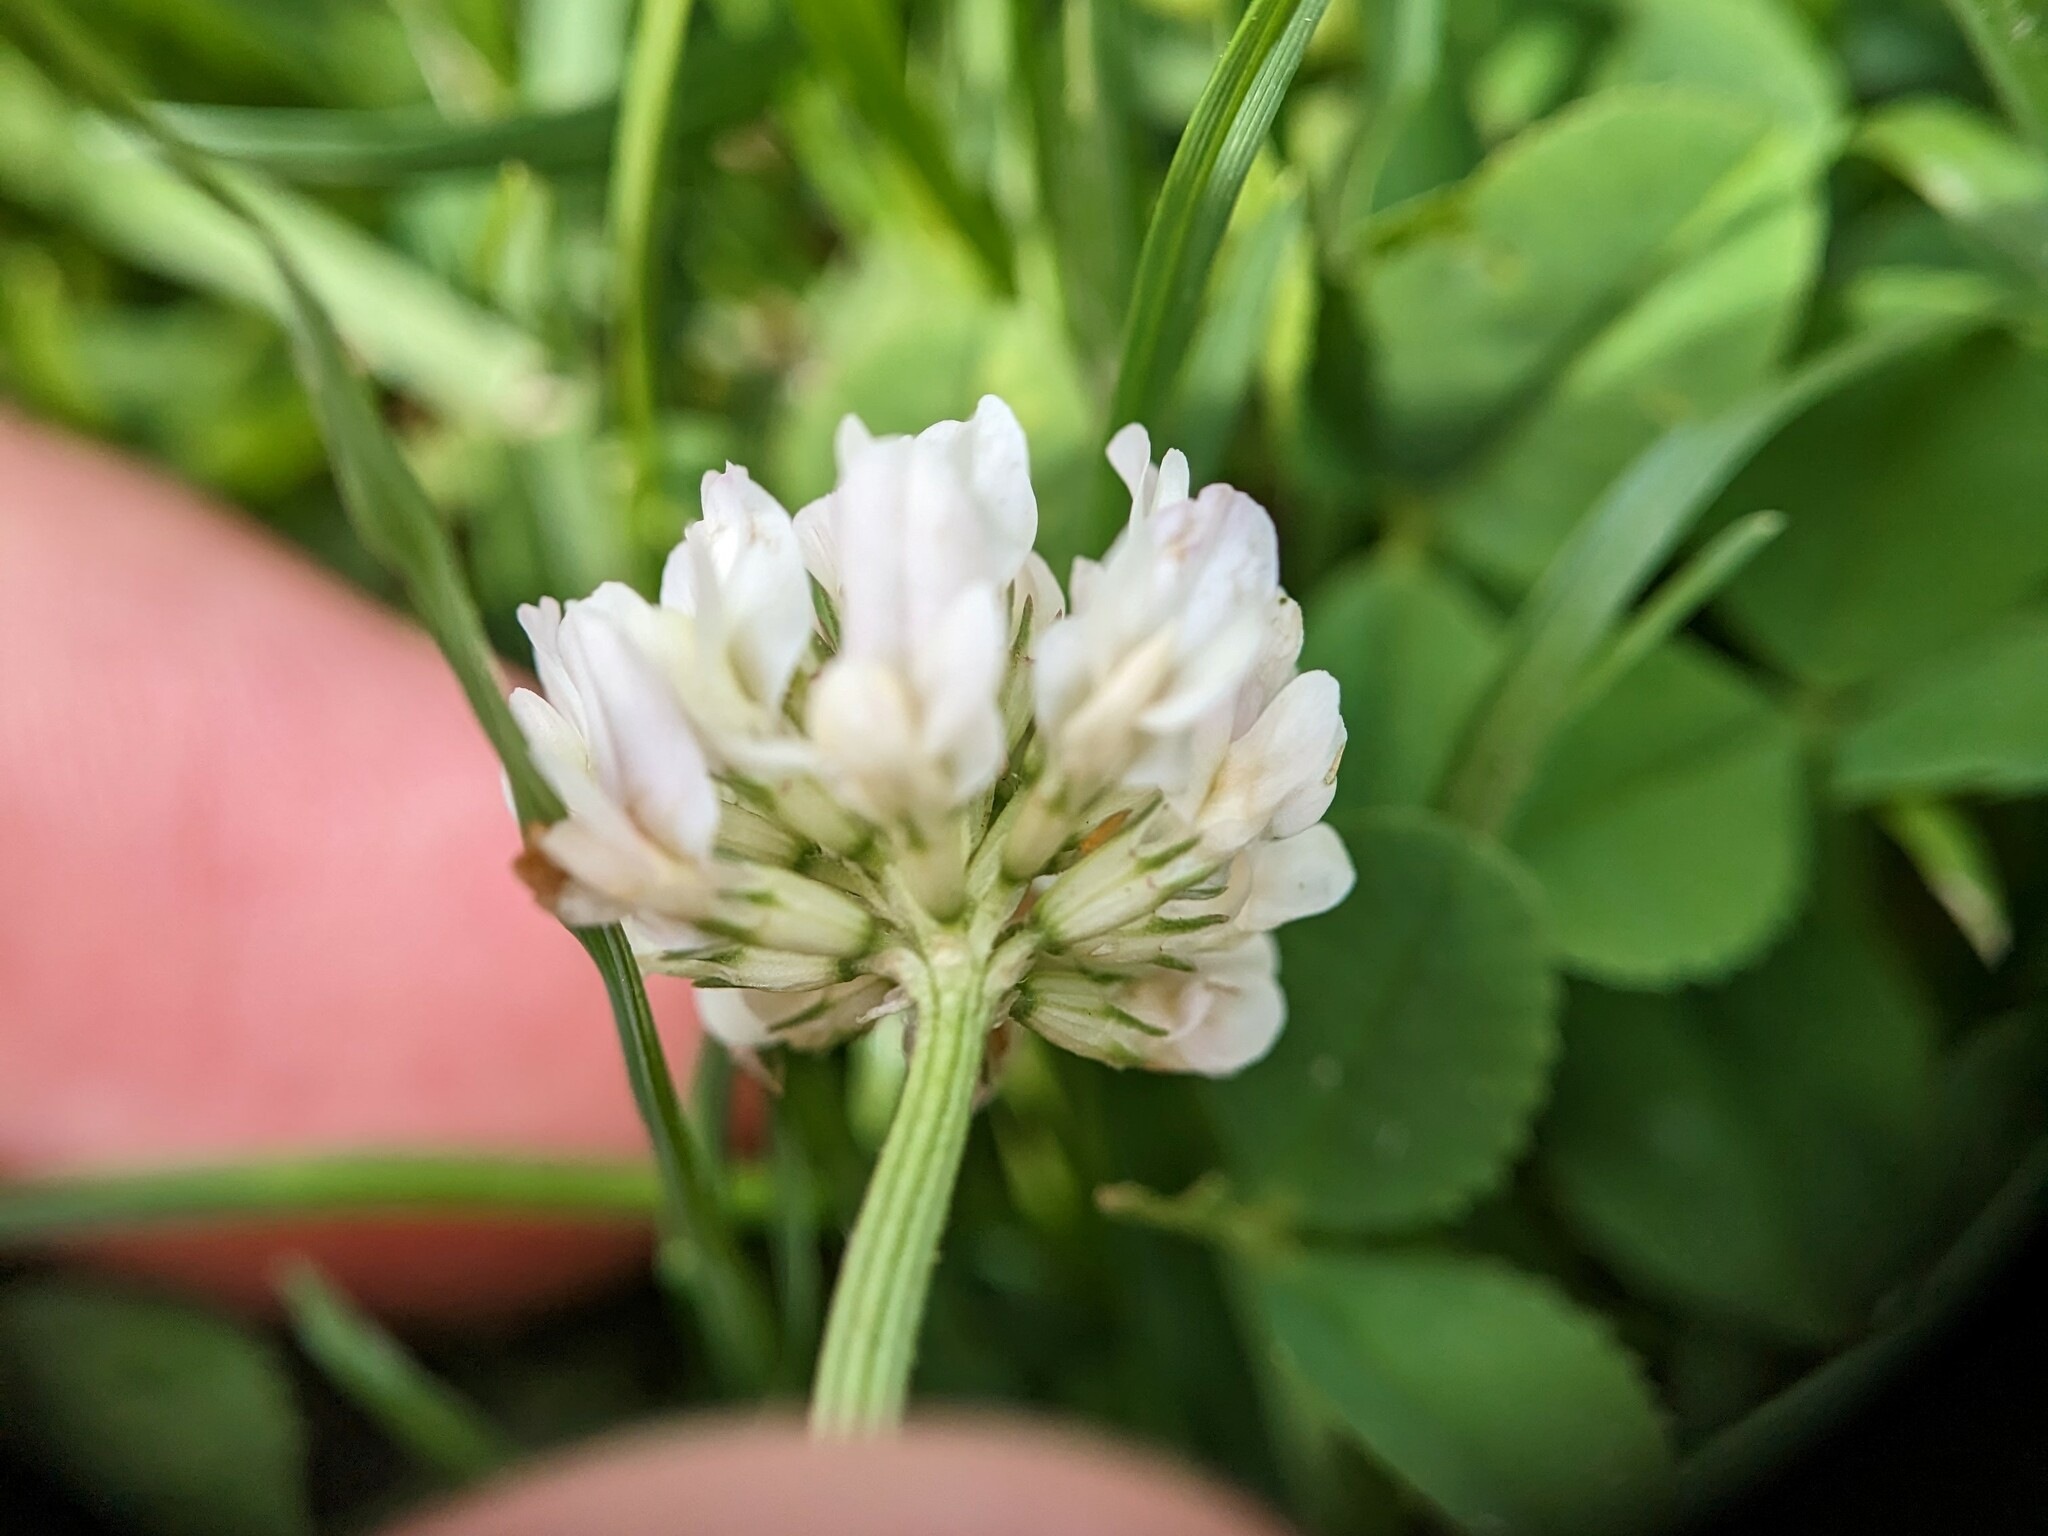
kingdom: Plantae
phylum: Tracheophyta
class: Magnoliopsida
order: Fabales
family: Fabaceae
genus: Trifolium
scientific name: Trifolium repens
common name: White clover
